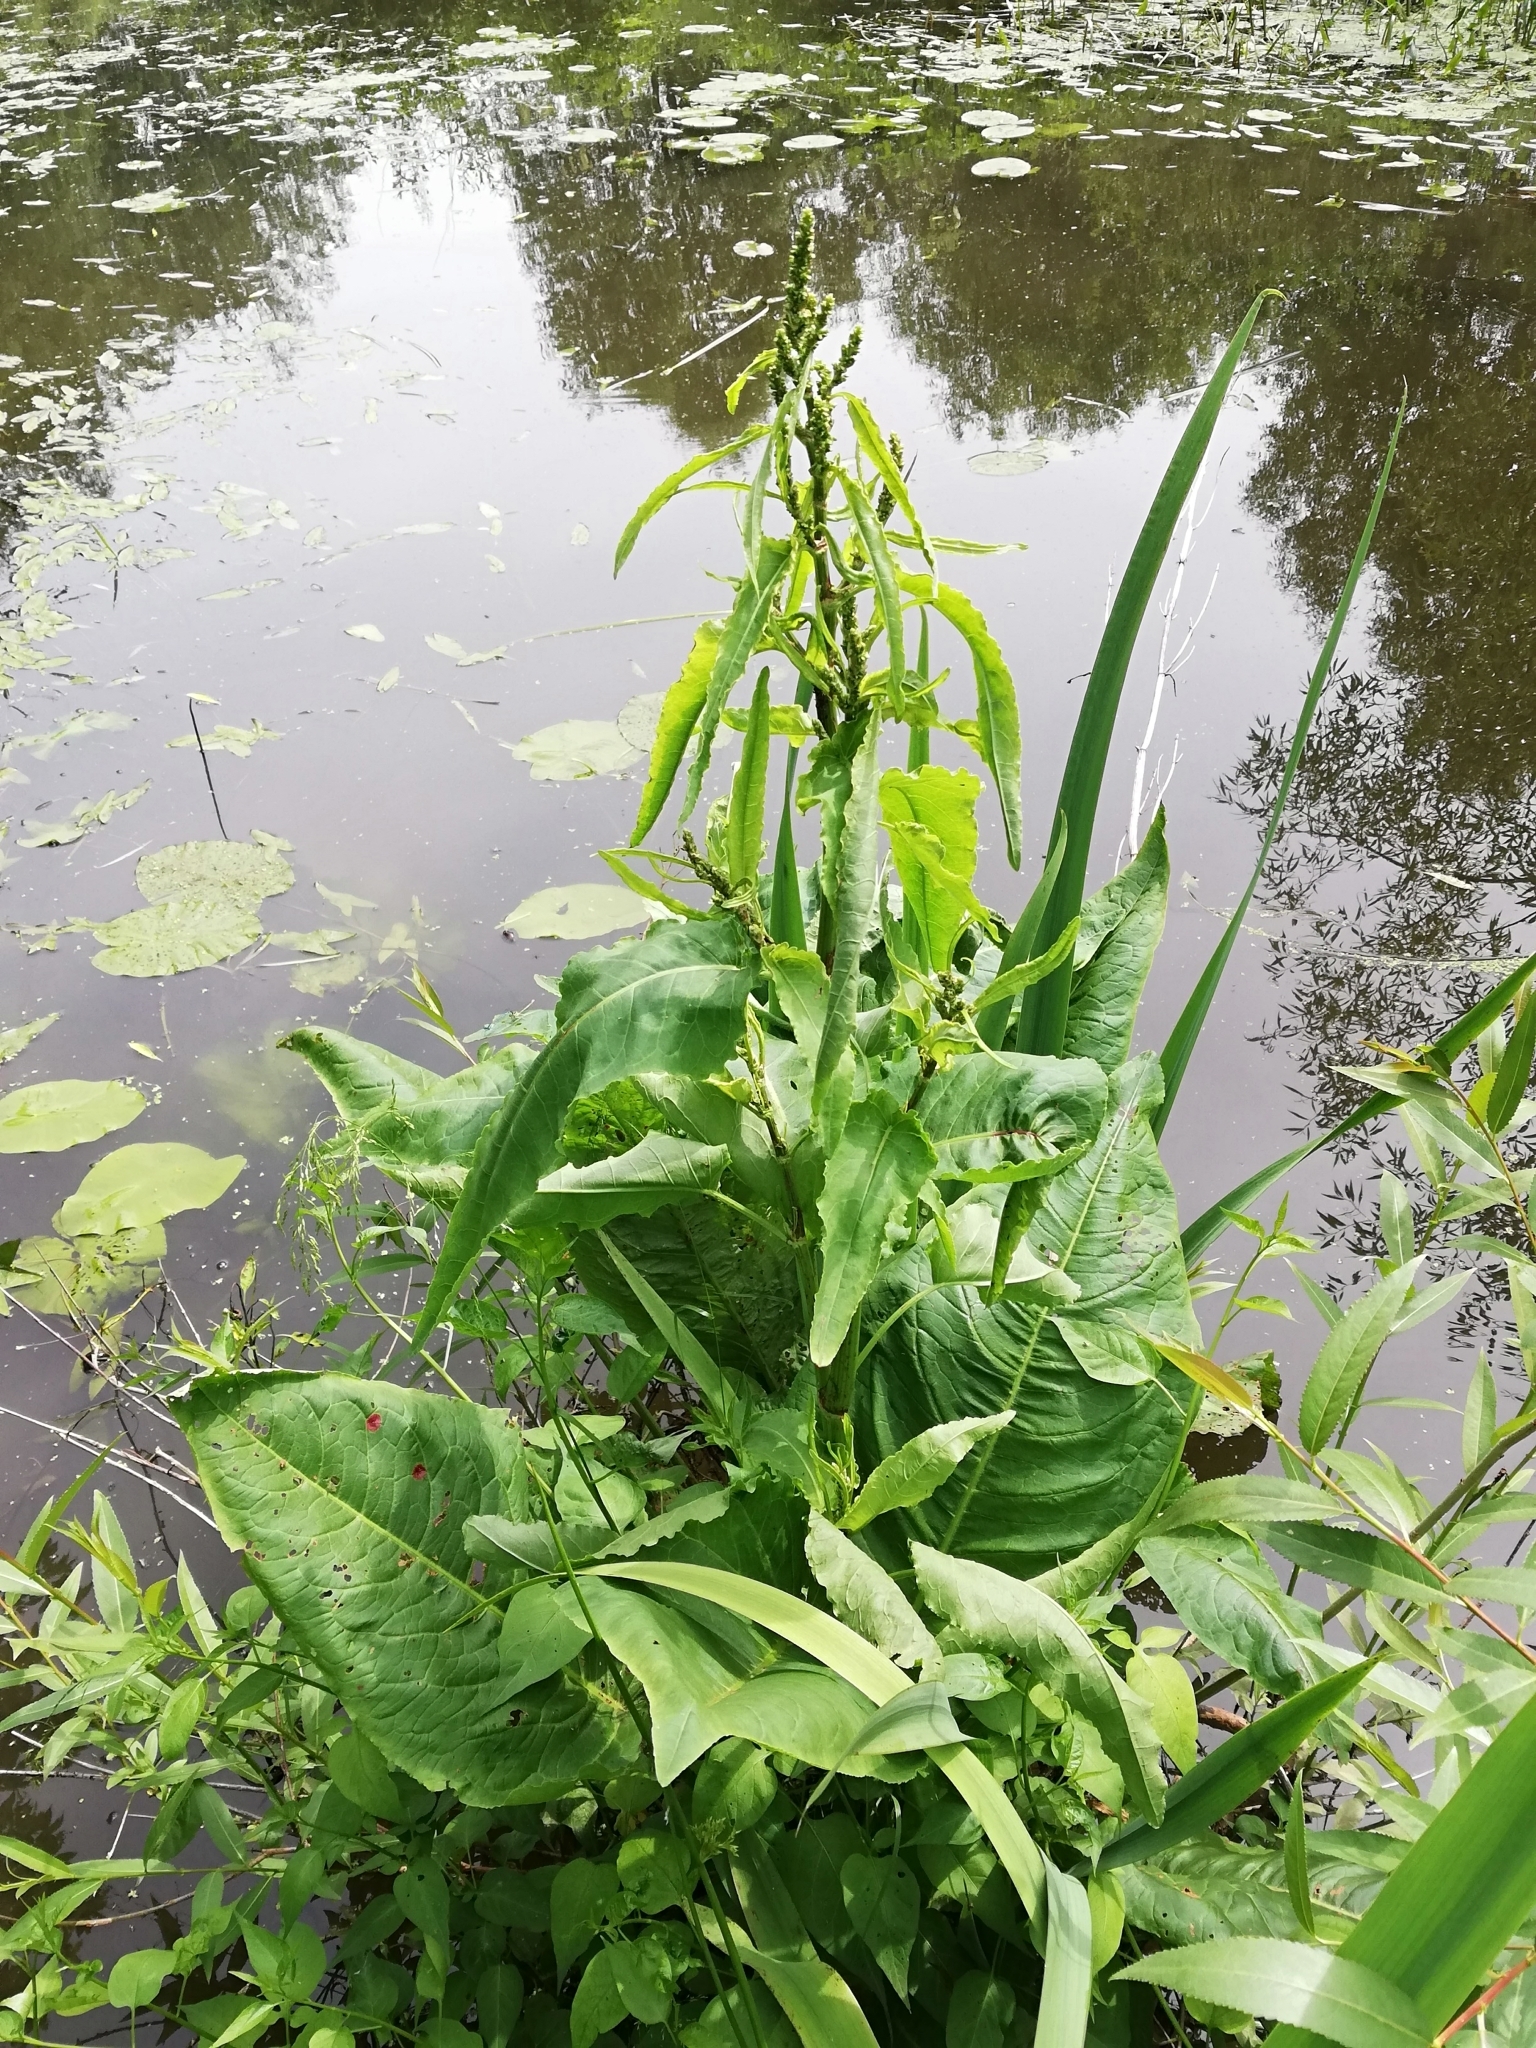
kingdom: Plantae
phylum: Tracheophyta
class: Magnoliopsida
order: Caryophyllales
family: Polygonaceae
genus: Rumex
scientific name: Rumex aquaticus
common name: Scottish dock
